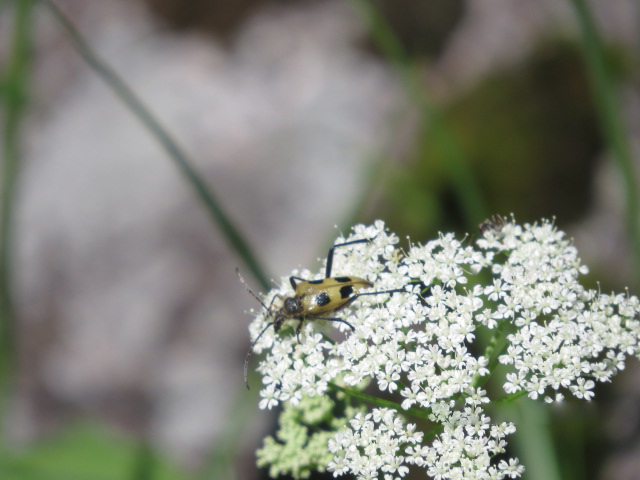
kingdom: Animalia
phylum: Arthropoda
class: Insecta
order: Coleoptera
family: Cerambycidae
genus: Pachyta
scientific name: Pachyta quadrimaculata
